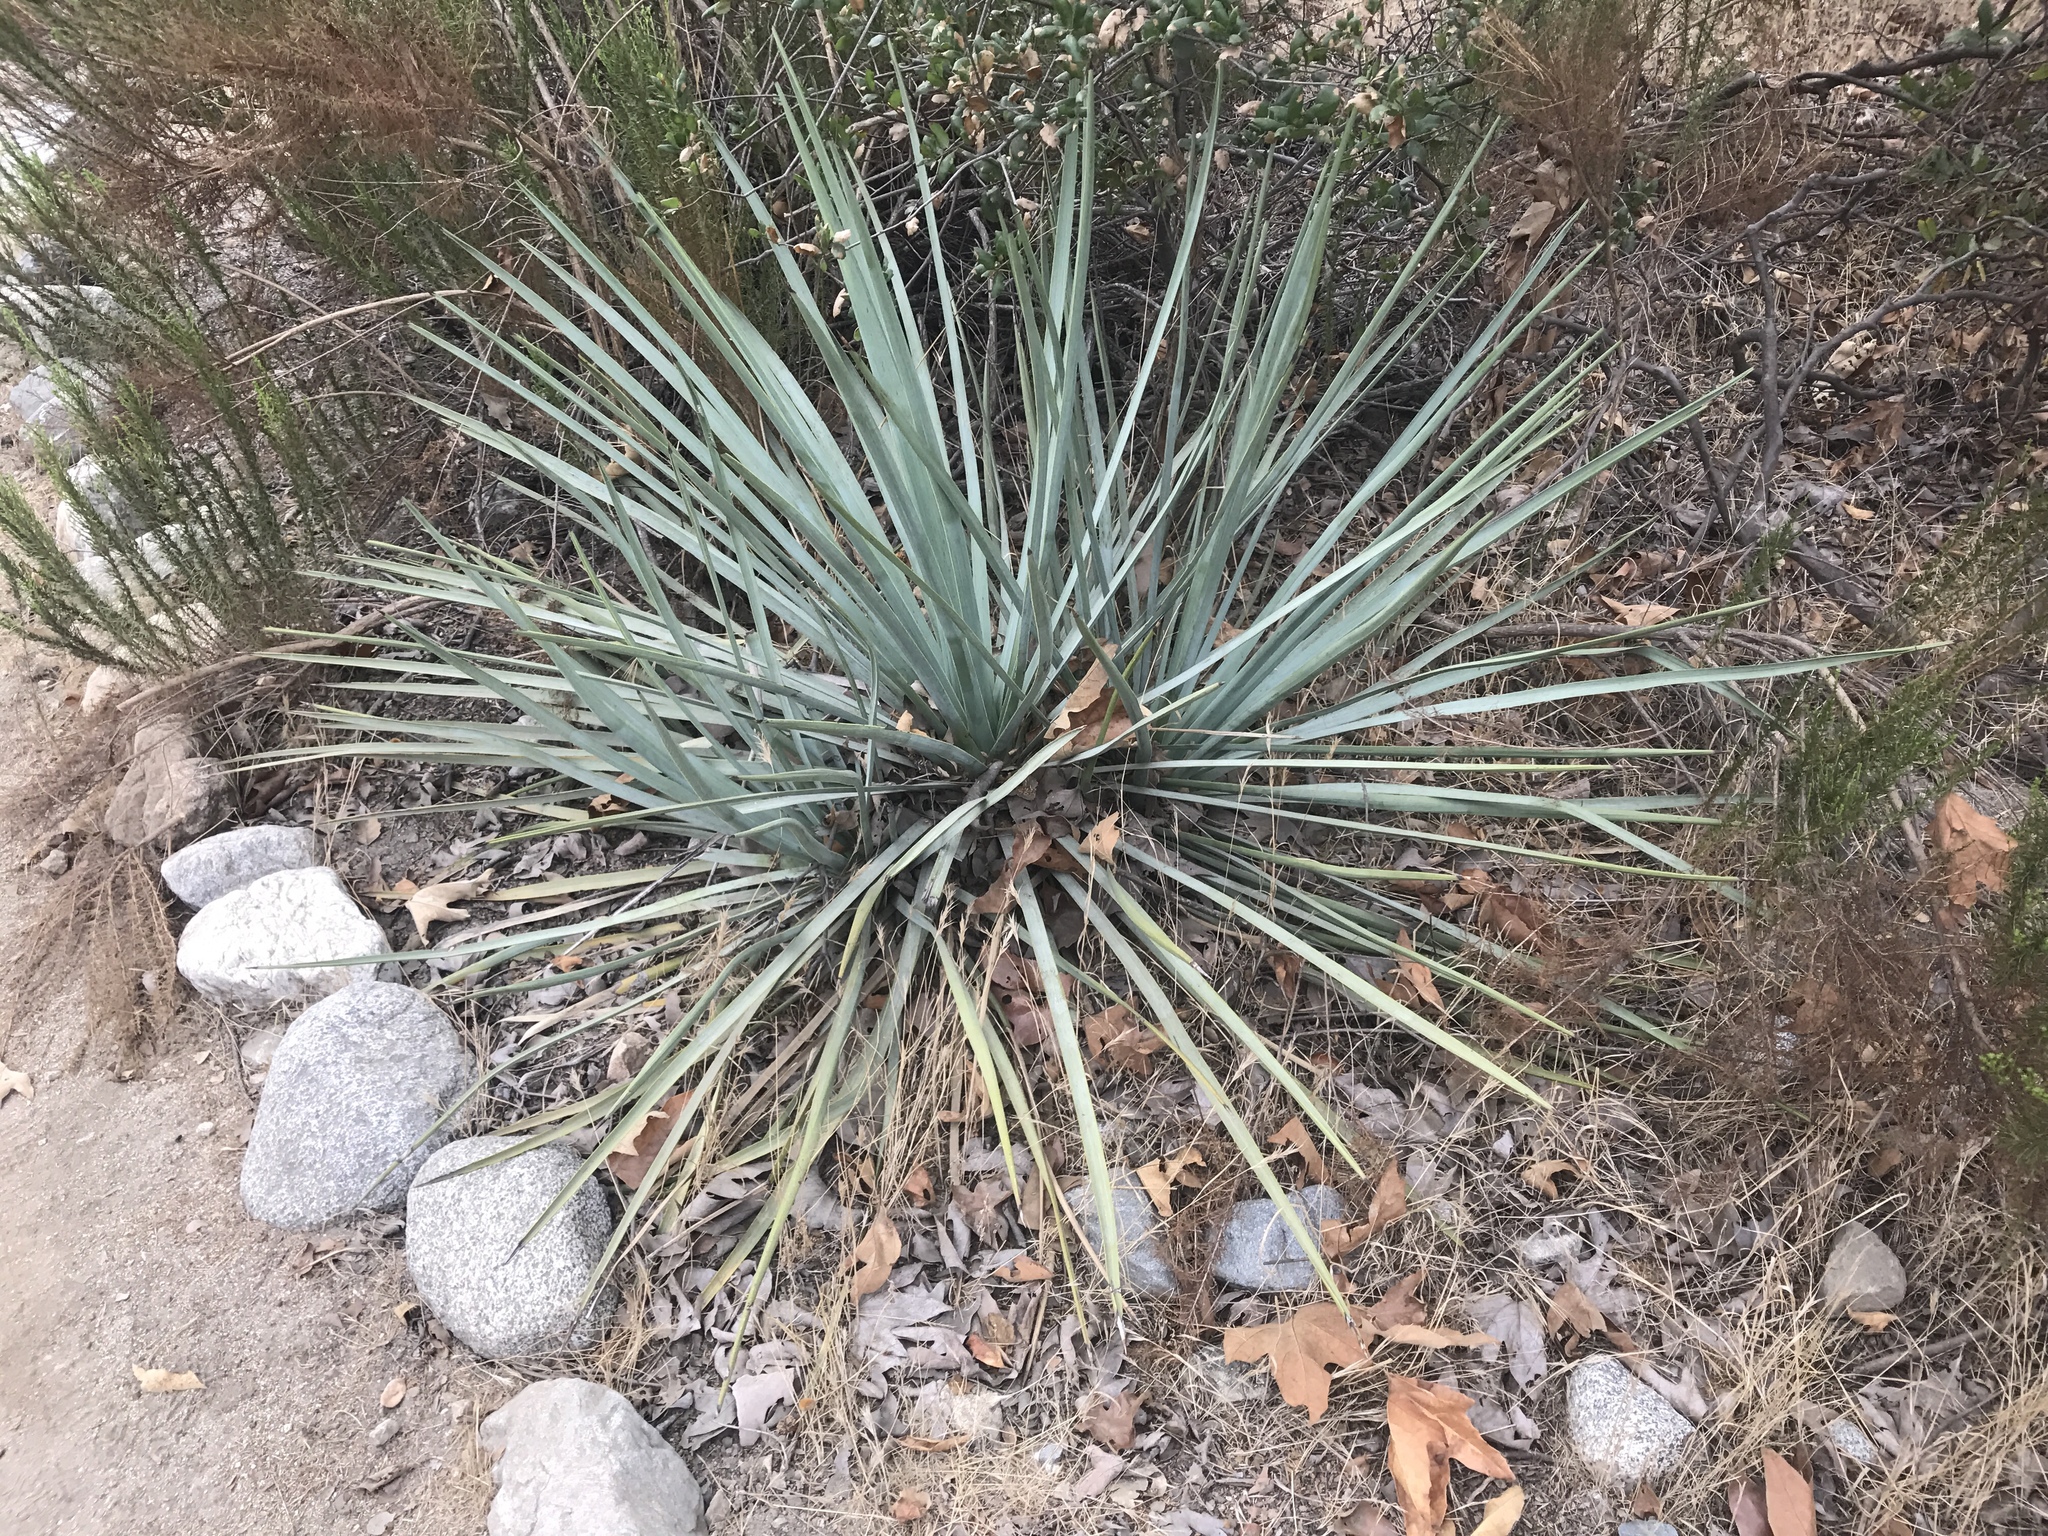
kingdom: Plantae
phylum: Tracheophyta
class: Liliopsida
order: Asparagales
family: Asparagaceae
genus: Hesperoyucca
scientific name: Hesperoyucca whipplei
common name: Our lord's-candle
